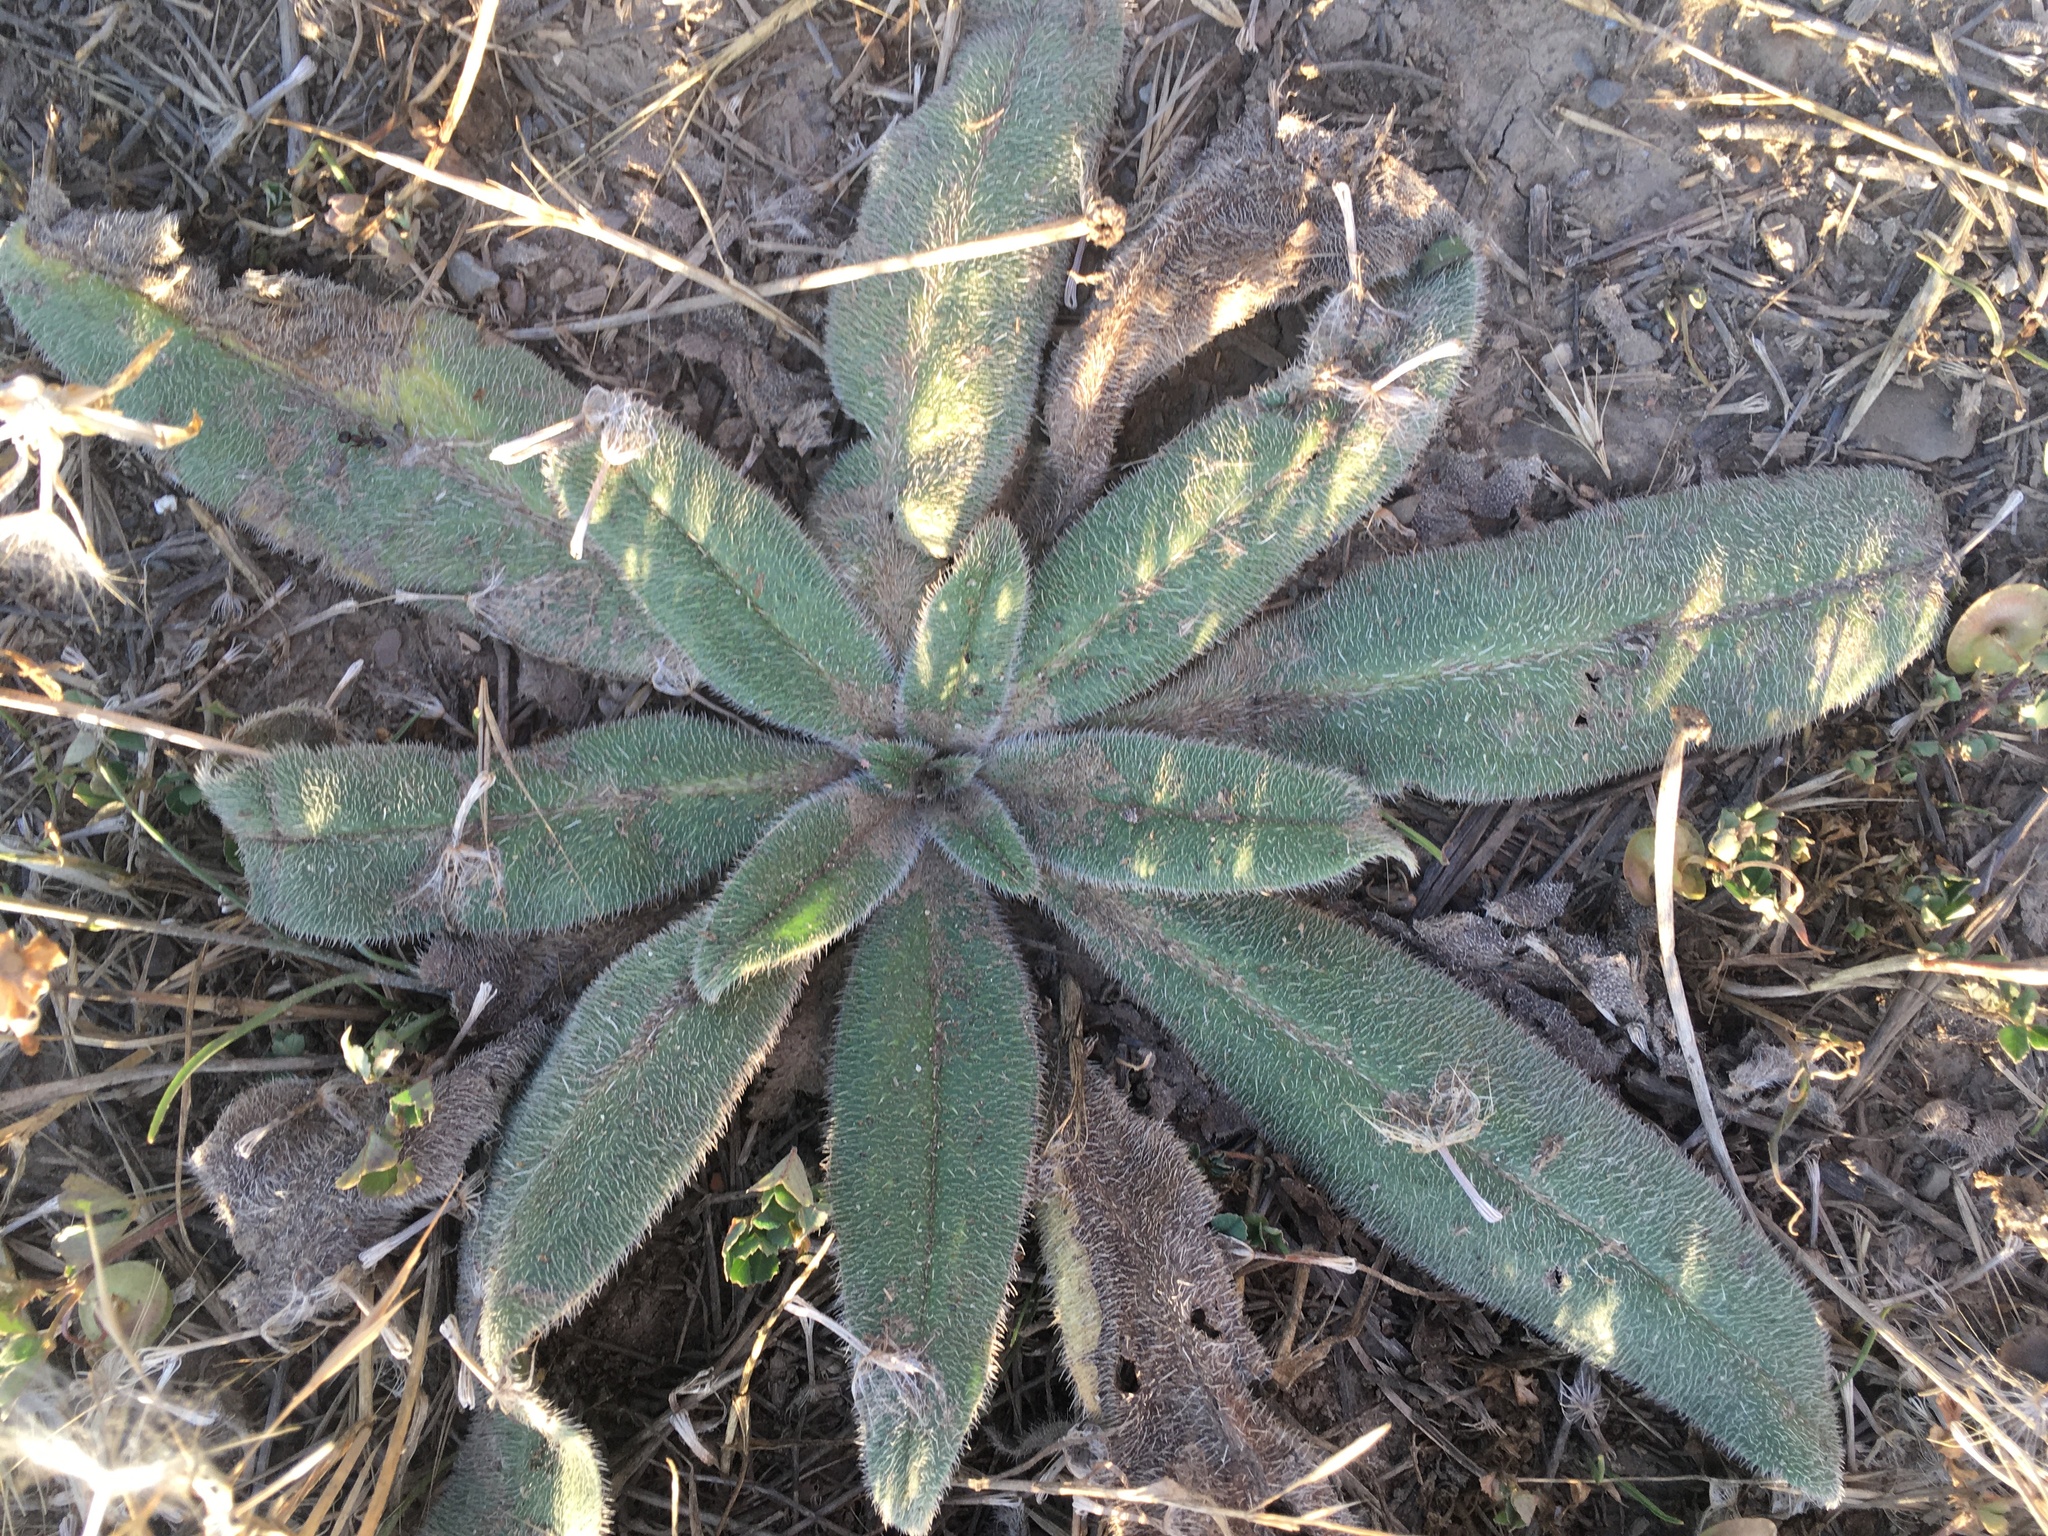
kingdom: Plantae
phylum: Tracheophyta
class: Magnoliopsida
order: Boraginales
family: Boraginaceae
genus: Echium
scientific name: Echium vulgare
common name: Common viper's bugloss
